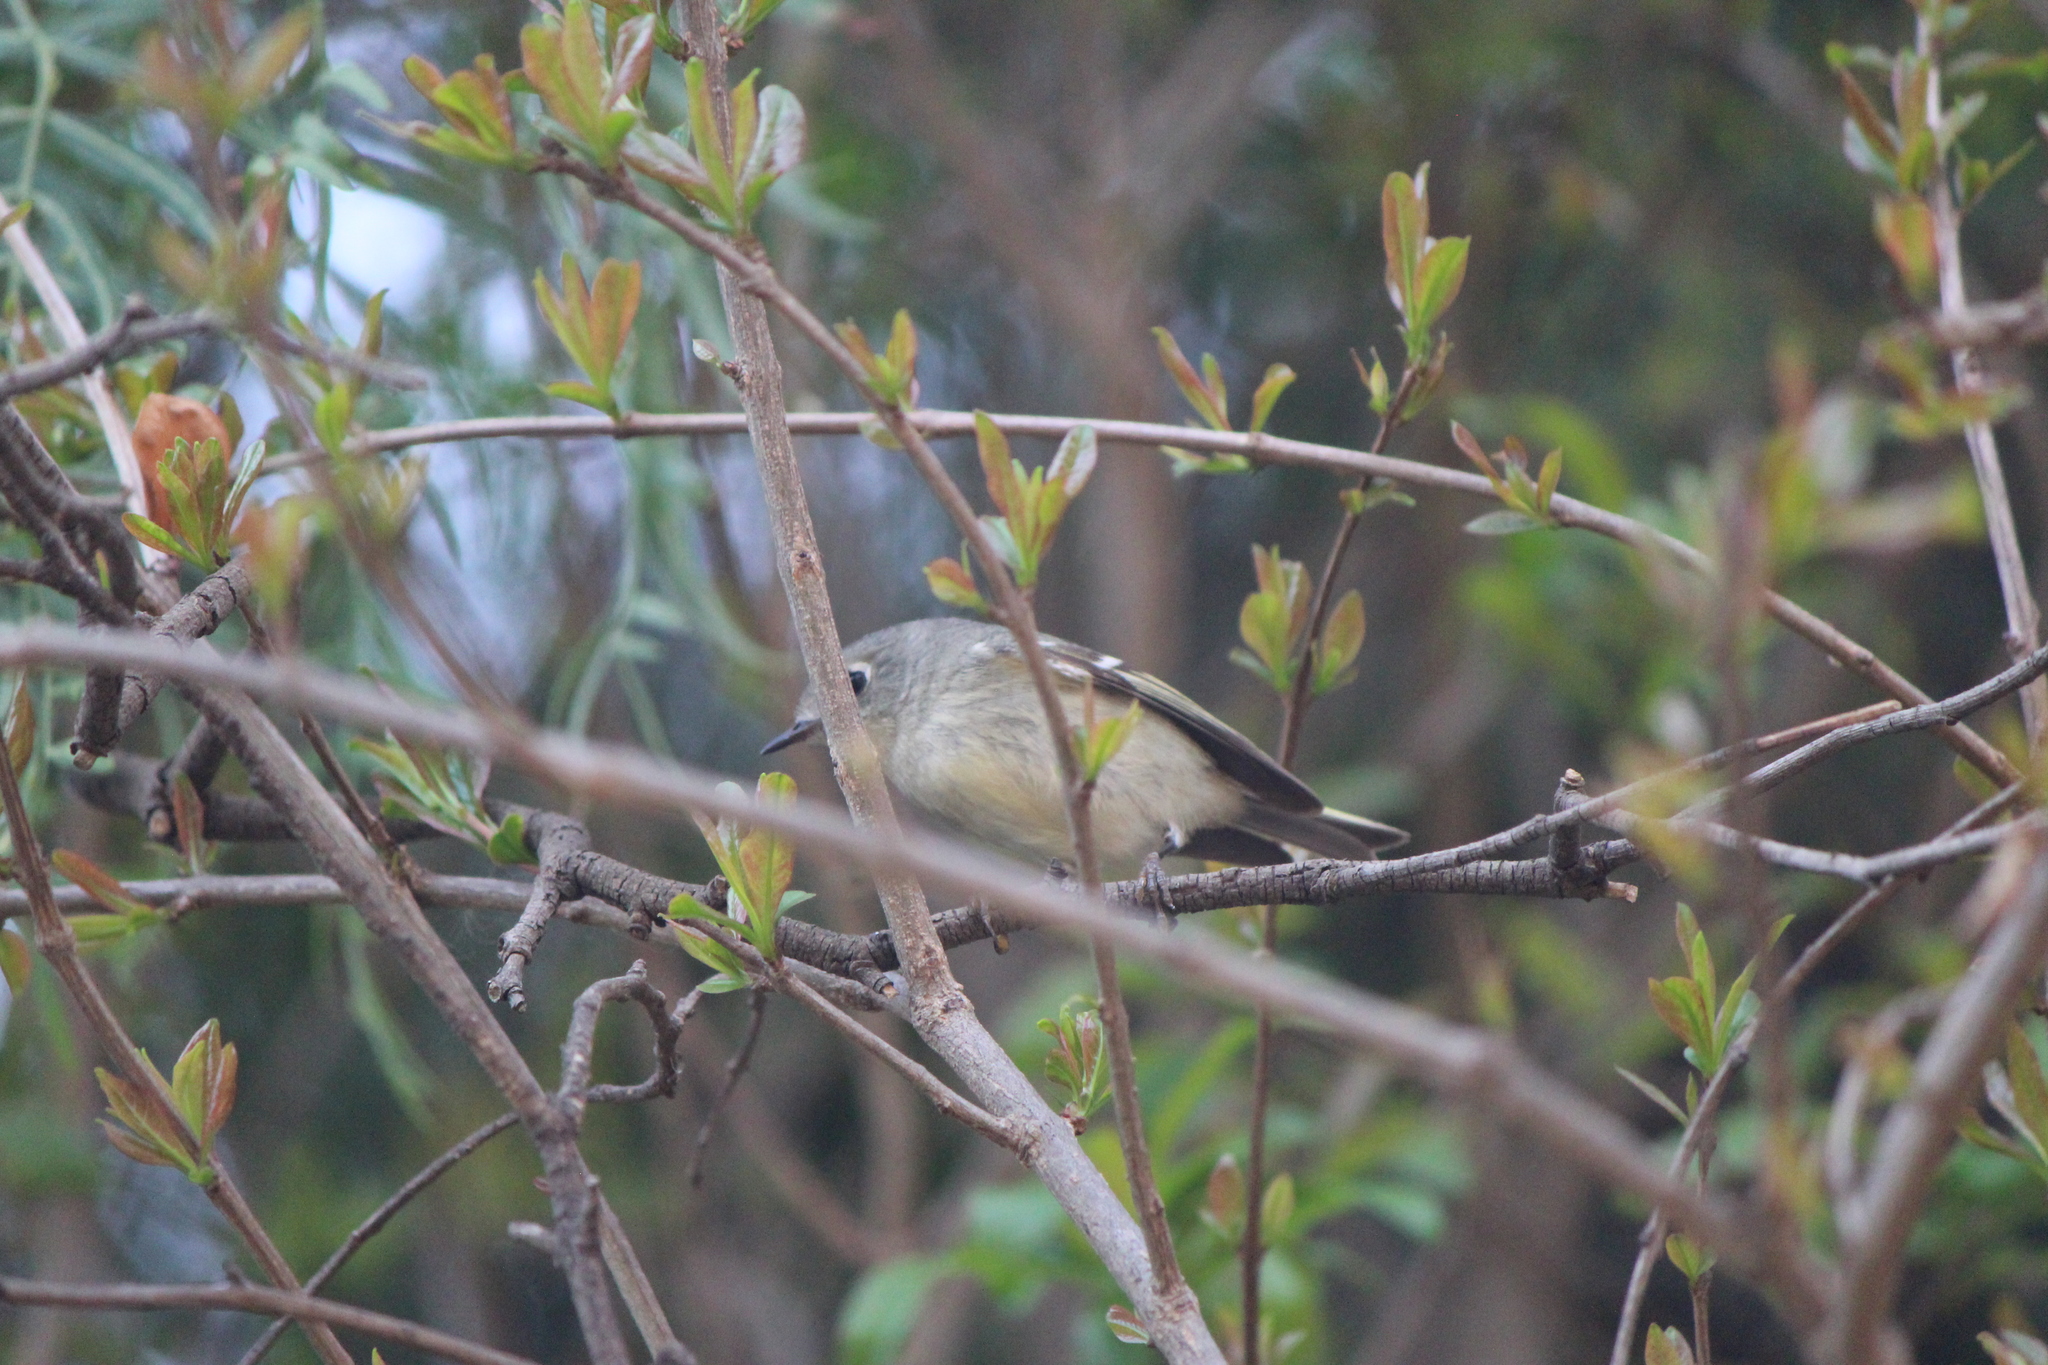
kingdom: Animalia
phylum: Chordata
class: Aves
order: Passeriformes
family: Regulidae
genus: Regulus
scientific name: Regulus calendula
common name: Ruby-crowned kinglet
